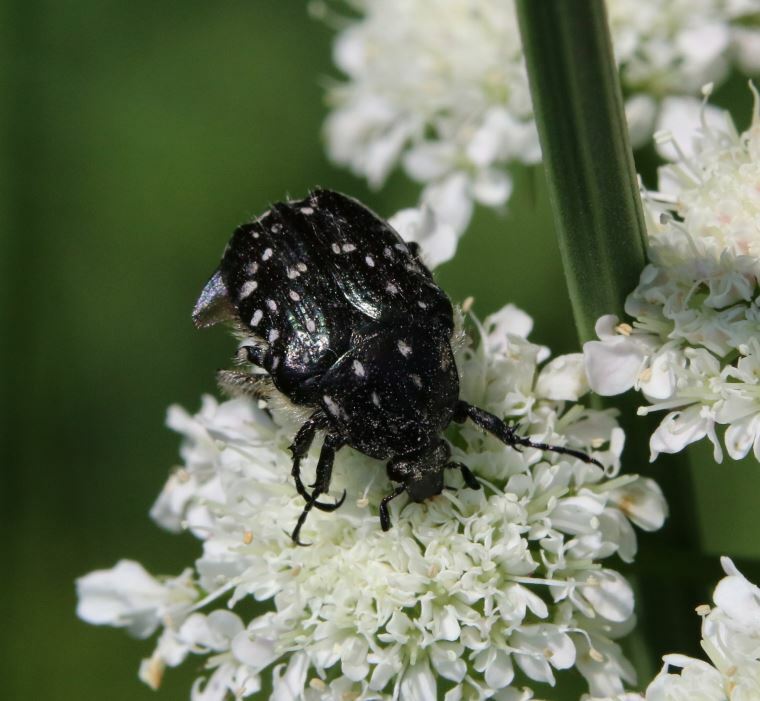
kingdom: Animalia
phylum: Arthropoda
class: Insecta
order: Coleoptera
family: Scarabaeidae
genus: Oxythyrea
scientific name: Oxythyrea funesta
